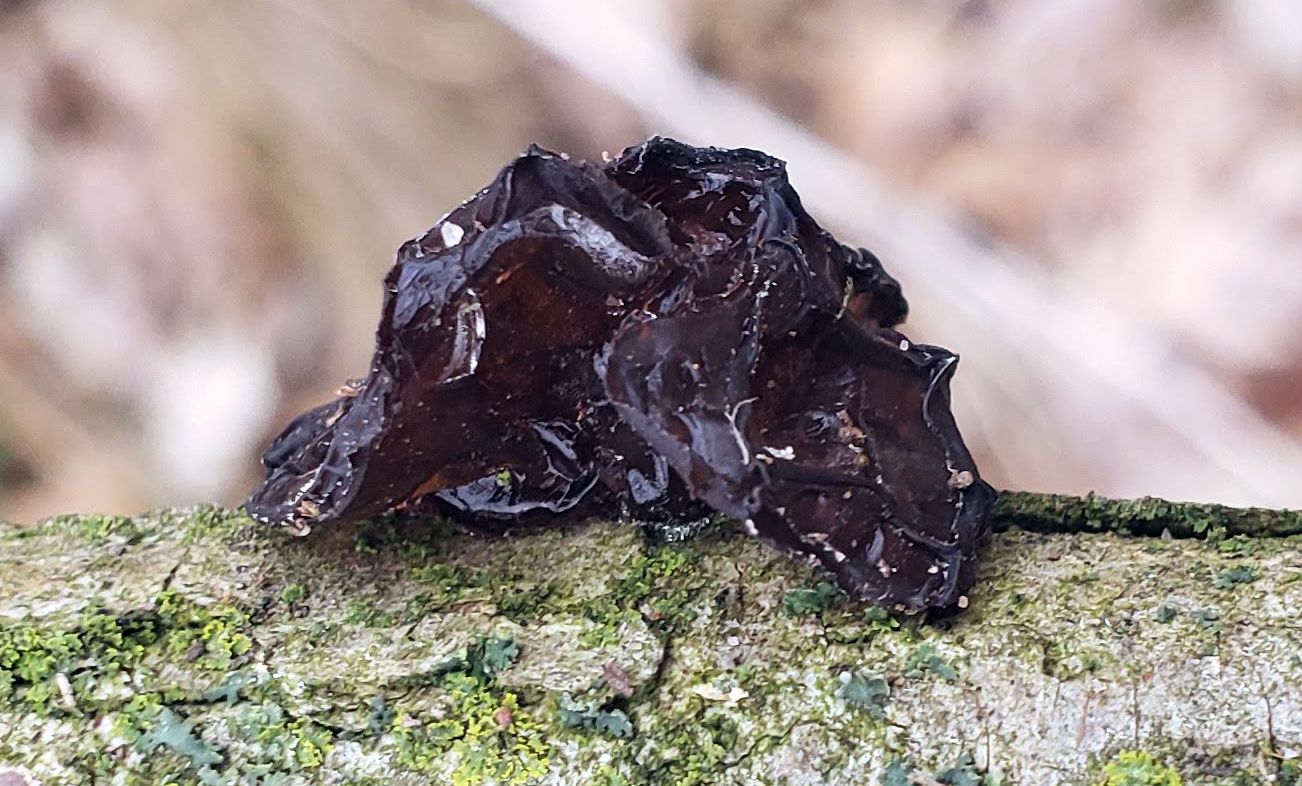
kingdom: Fungi
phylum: Basidiomycota
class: Agaricomycetes
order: Auriculariales
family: Auriculariaceae
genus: Exidia
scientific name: Exidia
